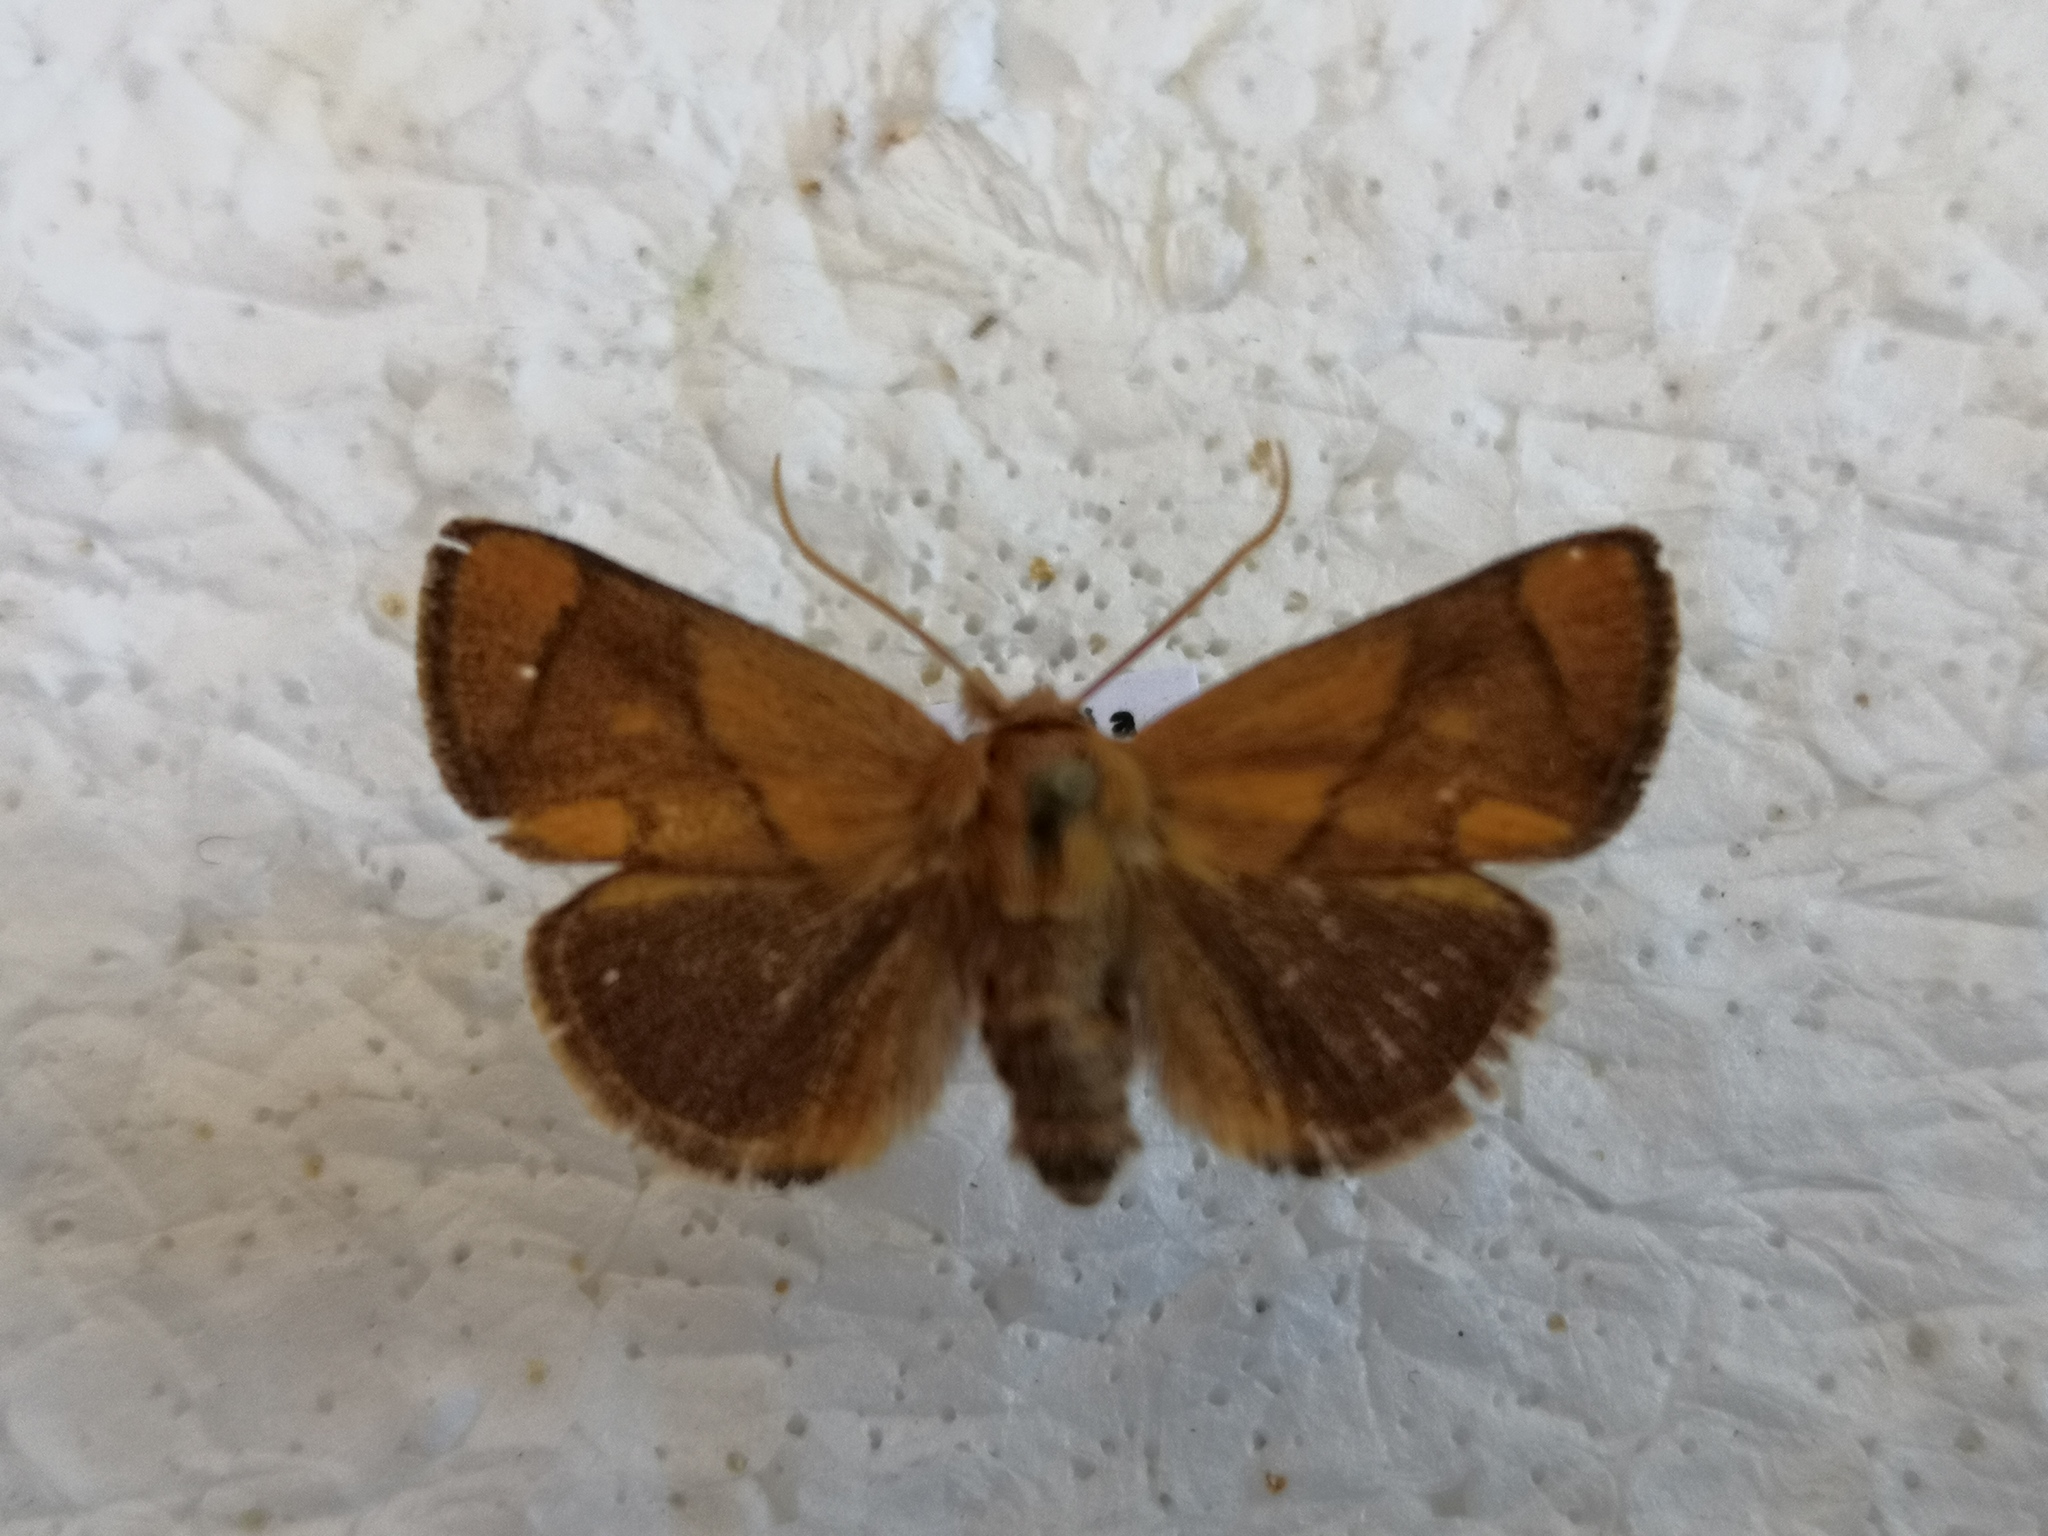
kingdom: Animalia
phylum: Arthropoda
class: Insecta
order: Lepidoptera
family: Limacodidae
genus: Apoda
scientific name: Apoda limacodes
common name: Festoon
